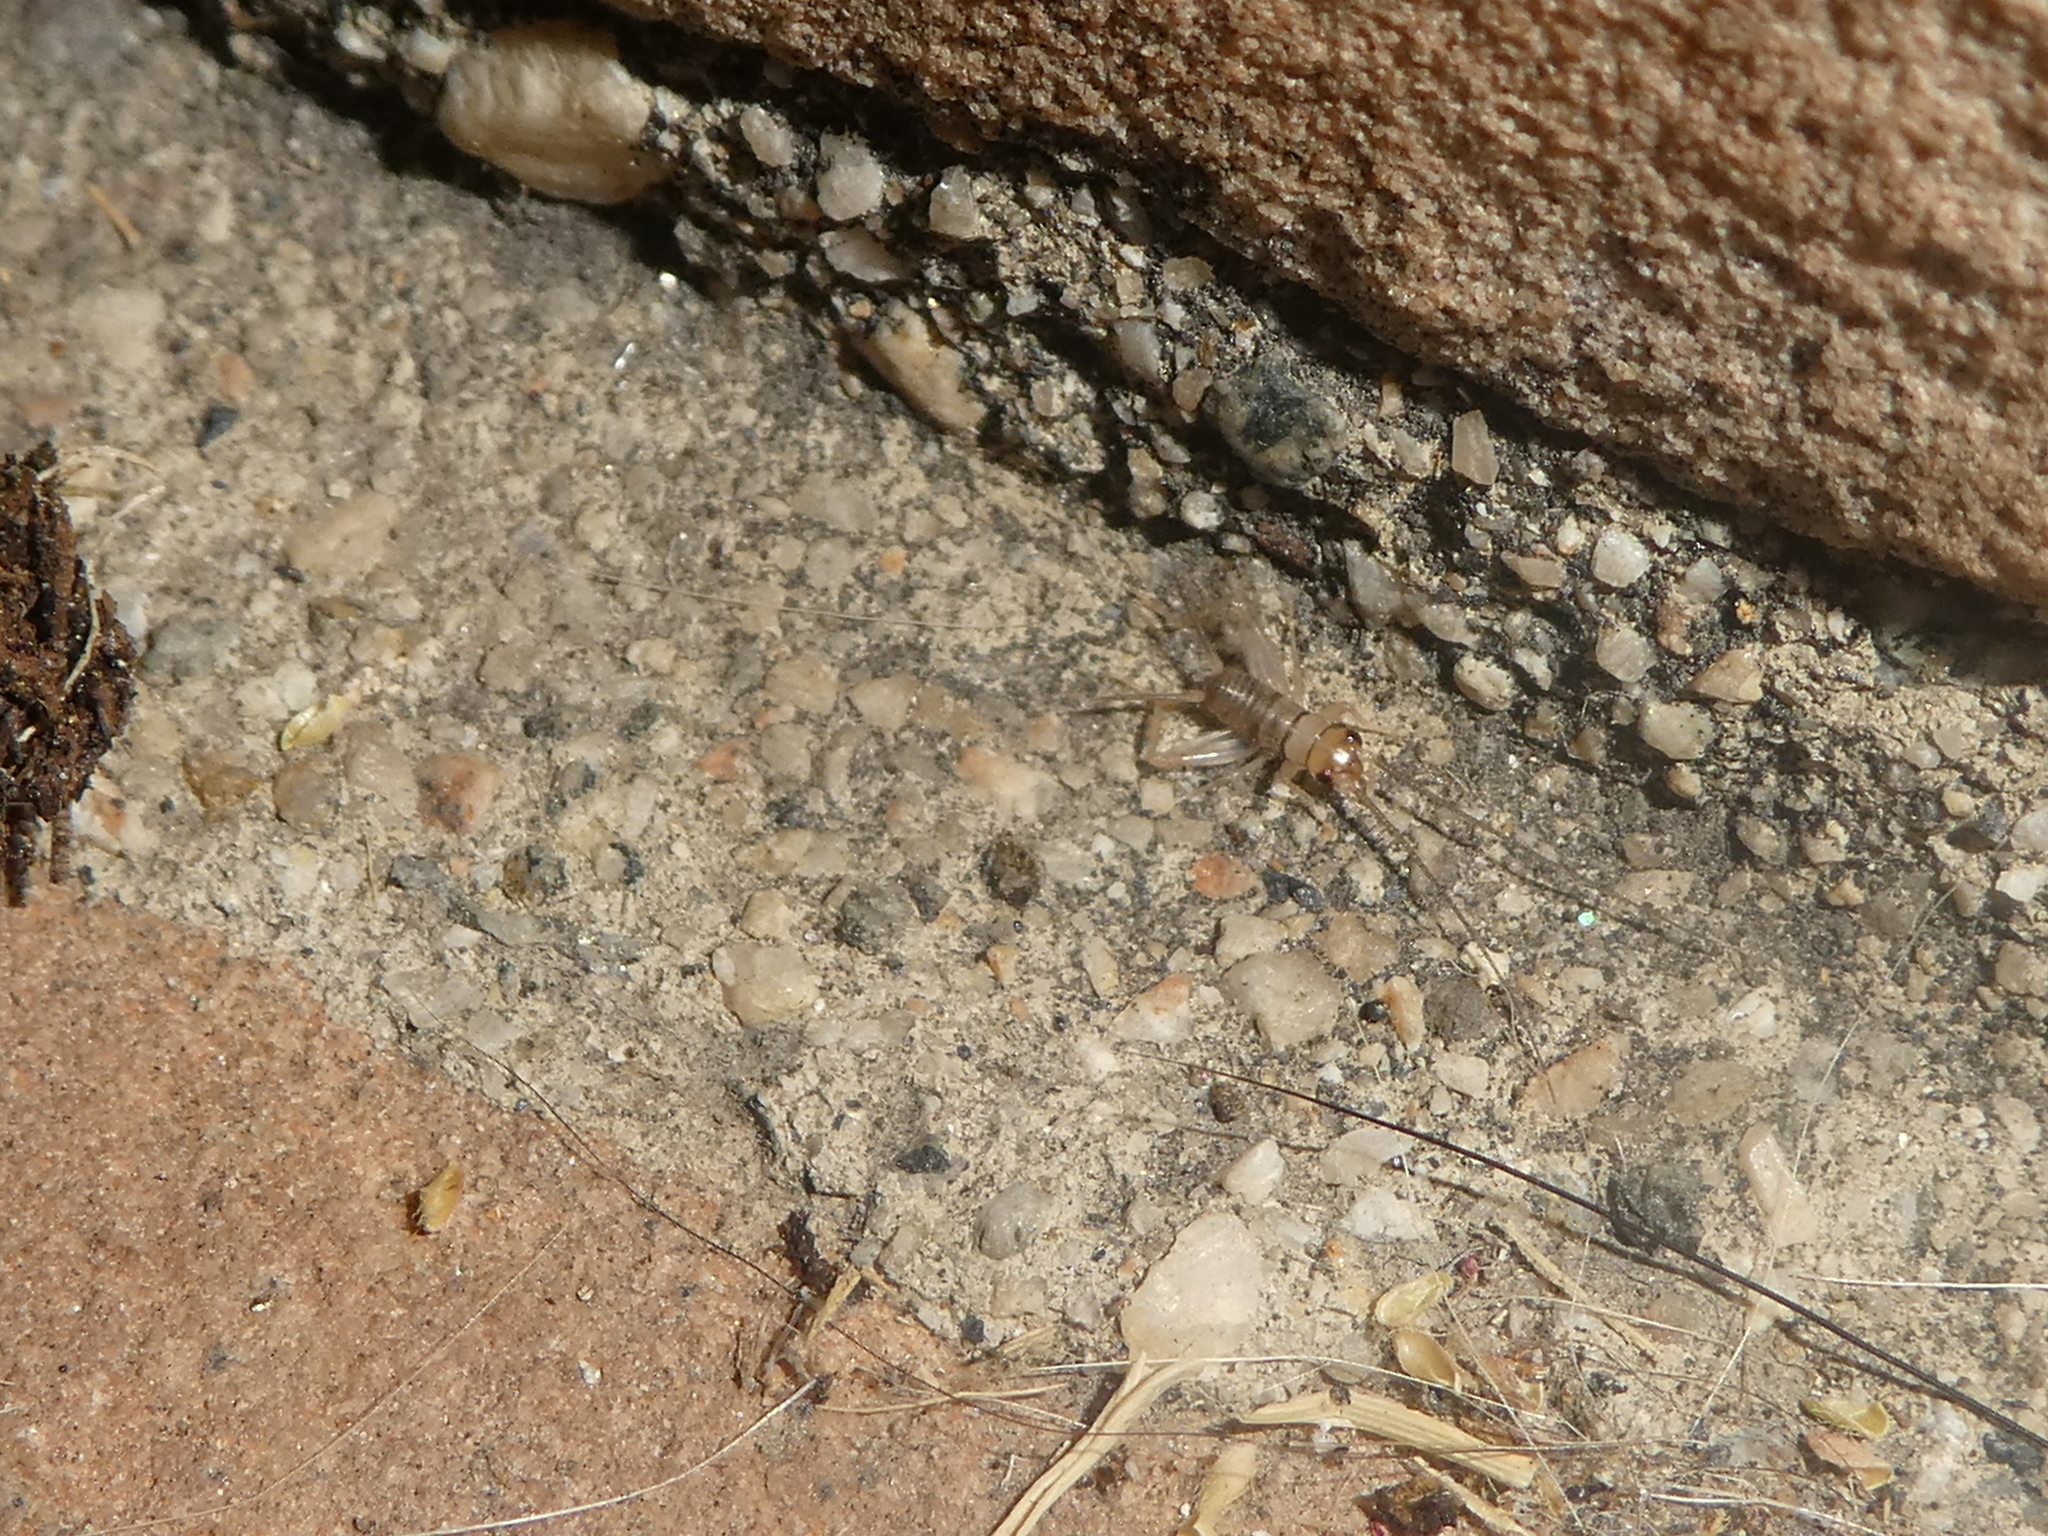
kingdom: Animalia
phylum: Arthropoda
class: Insecta
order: Orthoptera
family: Gryllidae
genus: Gryllodes
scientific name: Gryllodes sigillatus
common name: Tropical house cricket
